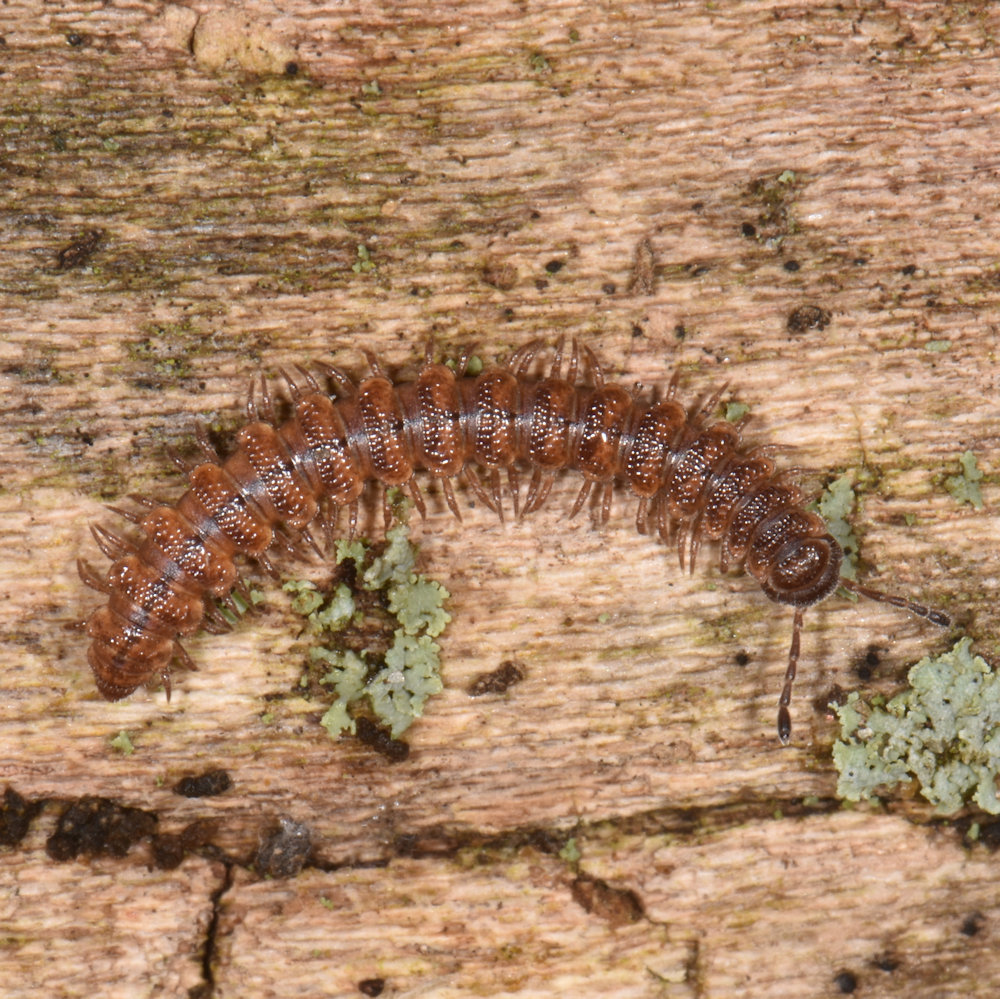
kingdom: Animalia
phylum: Arthropoda
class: Diplopoda
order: Polydesmida
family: Polydesmidae
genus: Scytonotus
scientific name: Scytonotus granulatus
